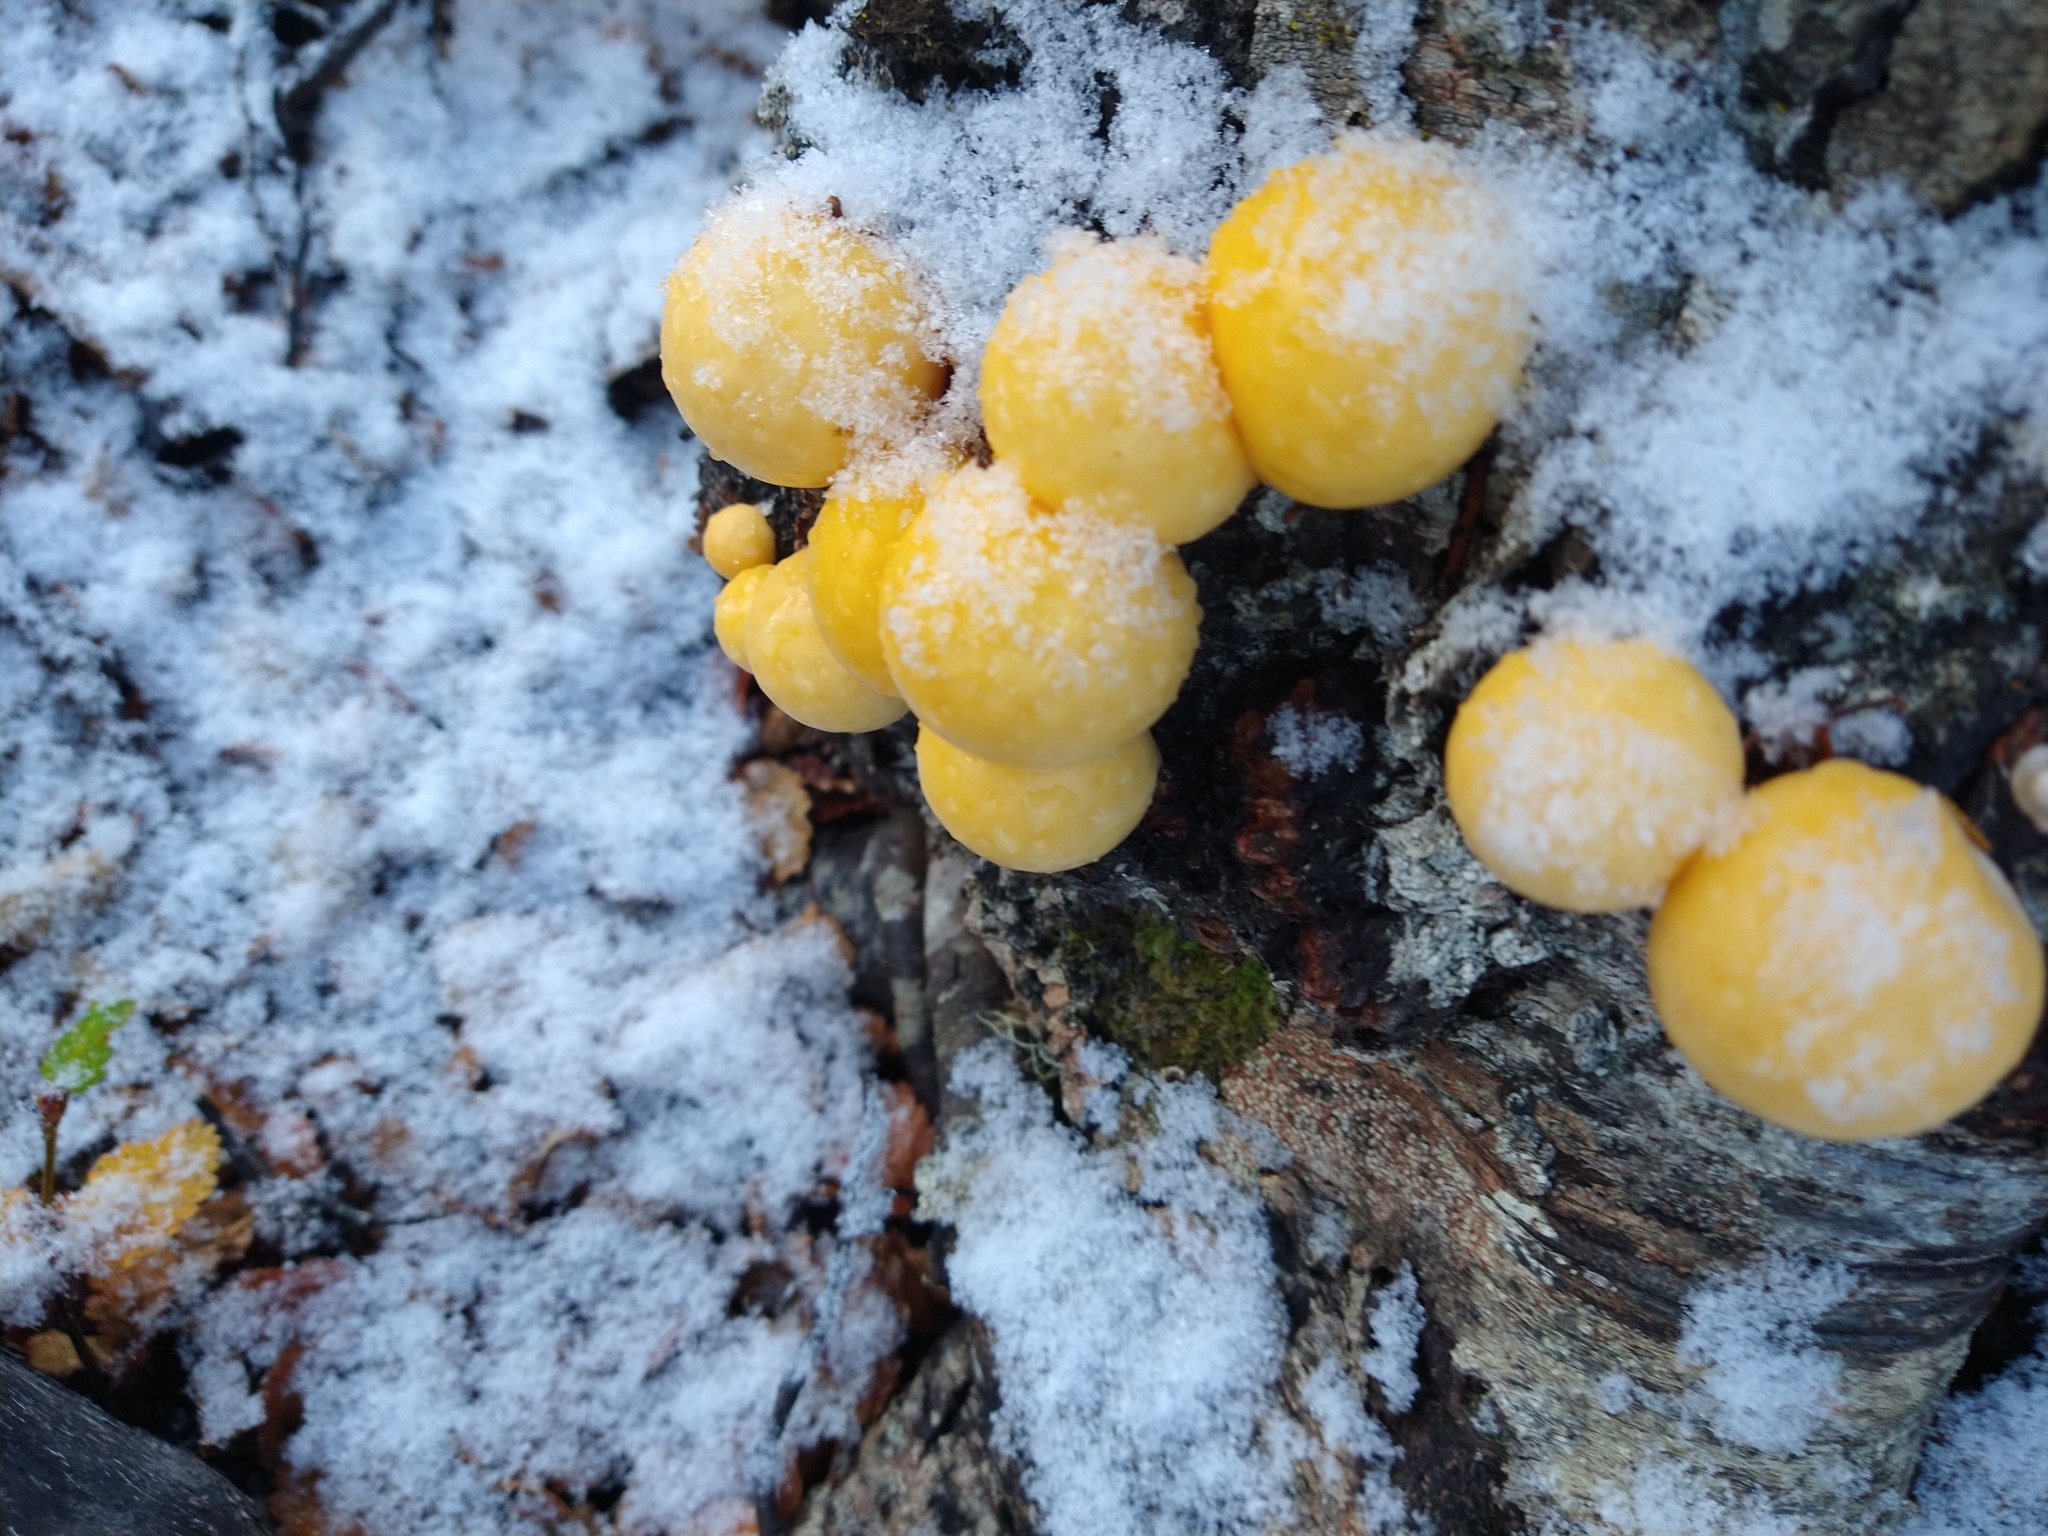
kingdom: Fungi
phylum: Ascomycota
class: Leotiomycetes
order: Cyttariales
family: Cyttariaceae
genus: Cyttaria
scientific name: Cyttaria darwinii
